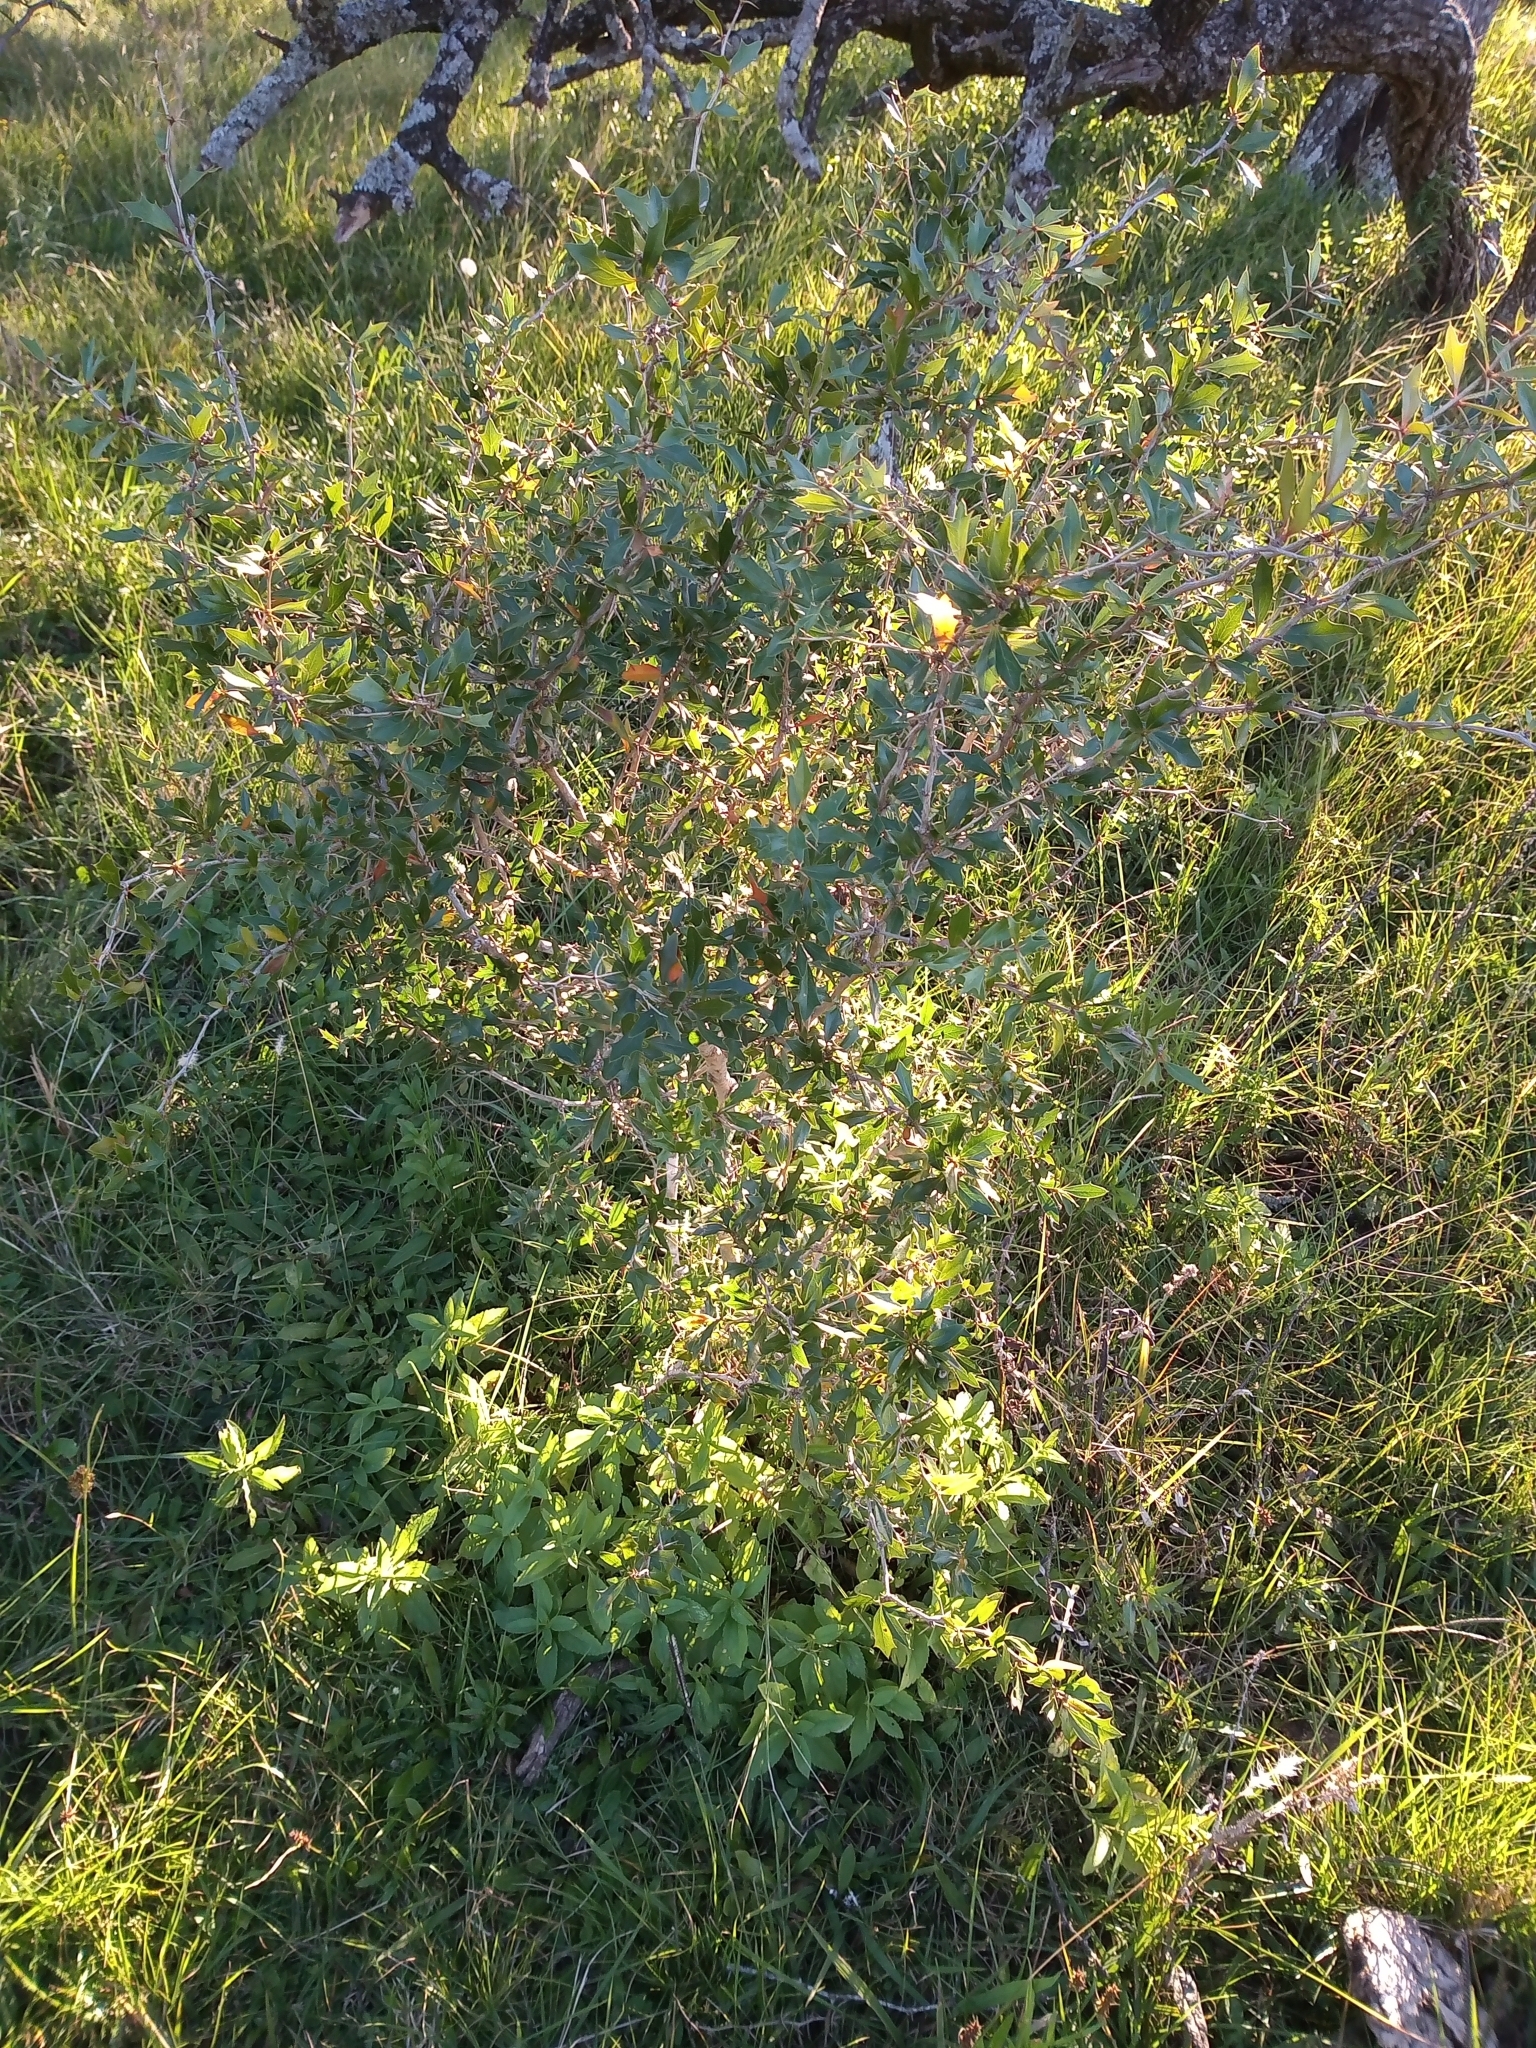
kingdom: Plantae
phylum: Tracheophyta
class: Magnoliopsida
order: Ranunculales
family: Berberidaceae
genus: Berberis
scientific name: Berberis ruscifolia
